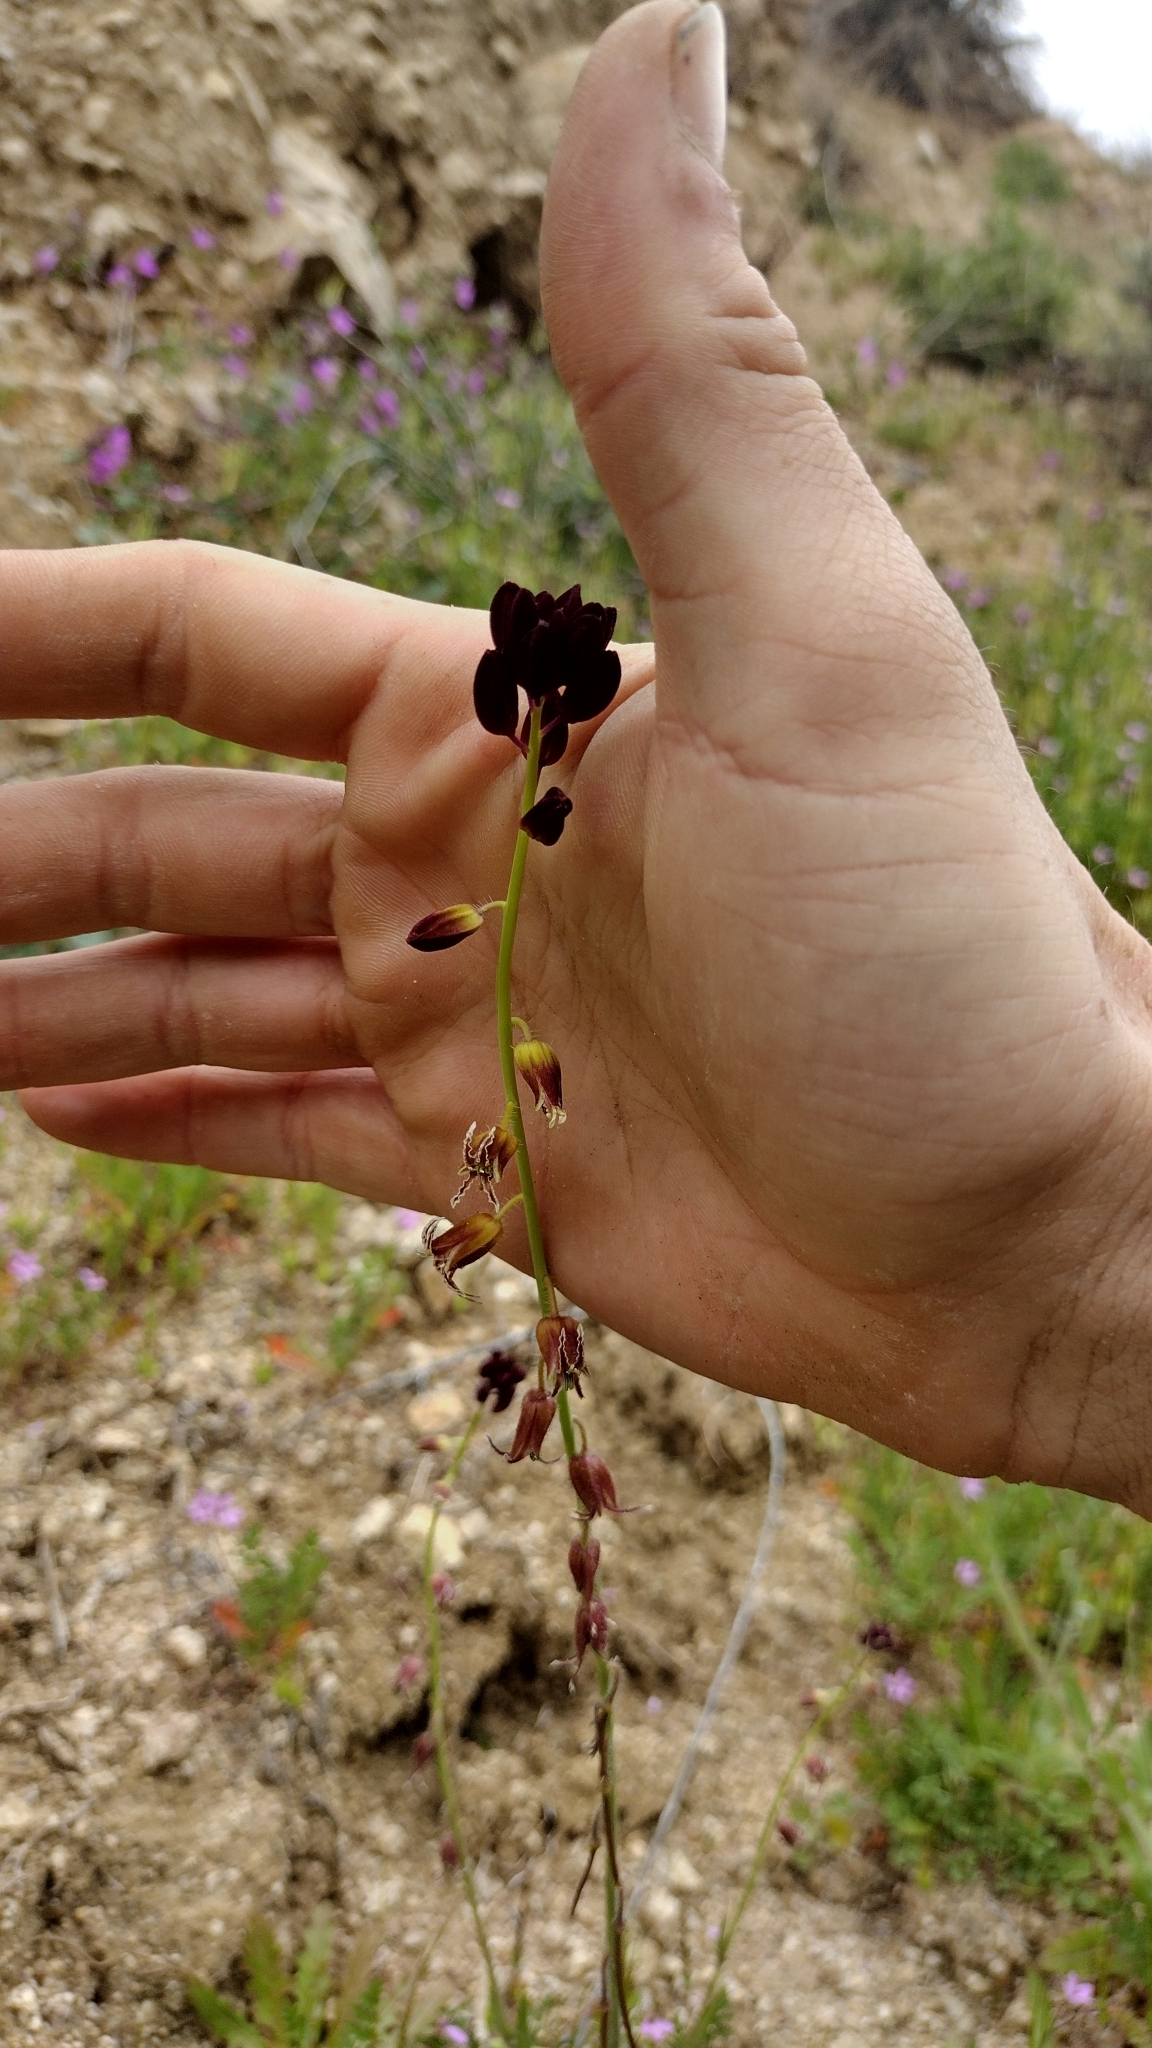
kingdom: Plantae
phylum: Tracheophyta
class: Magnoliopsida
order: Brassicales
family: Brassicaceae
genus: Streptanthus
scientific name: Streptanthus coulteri
